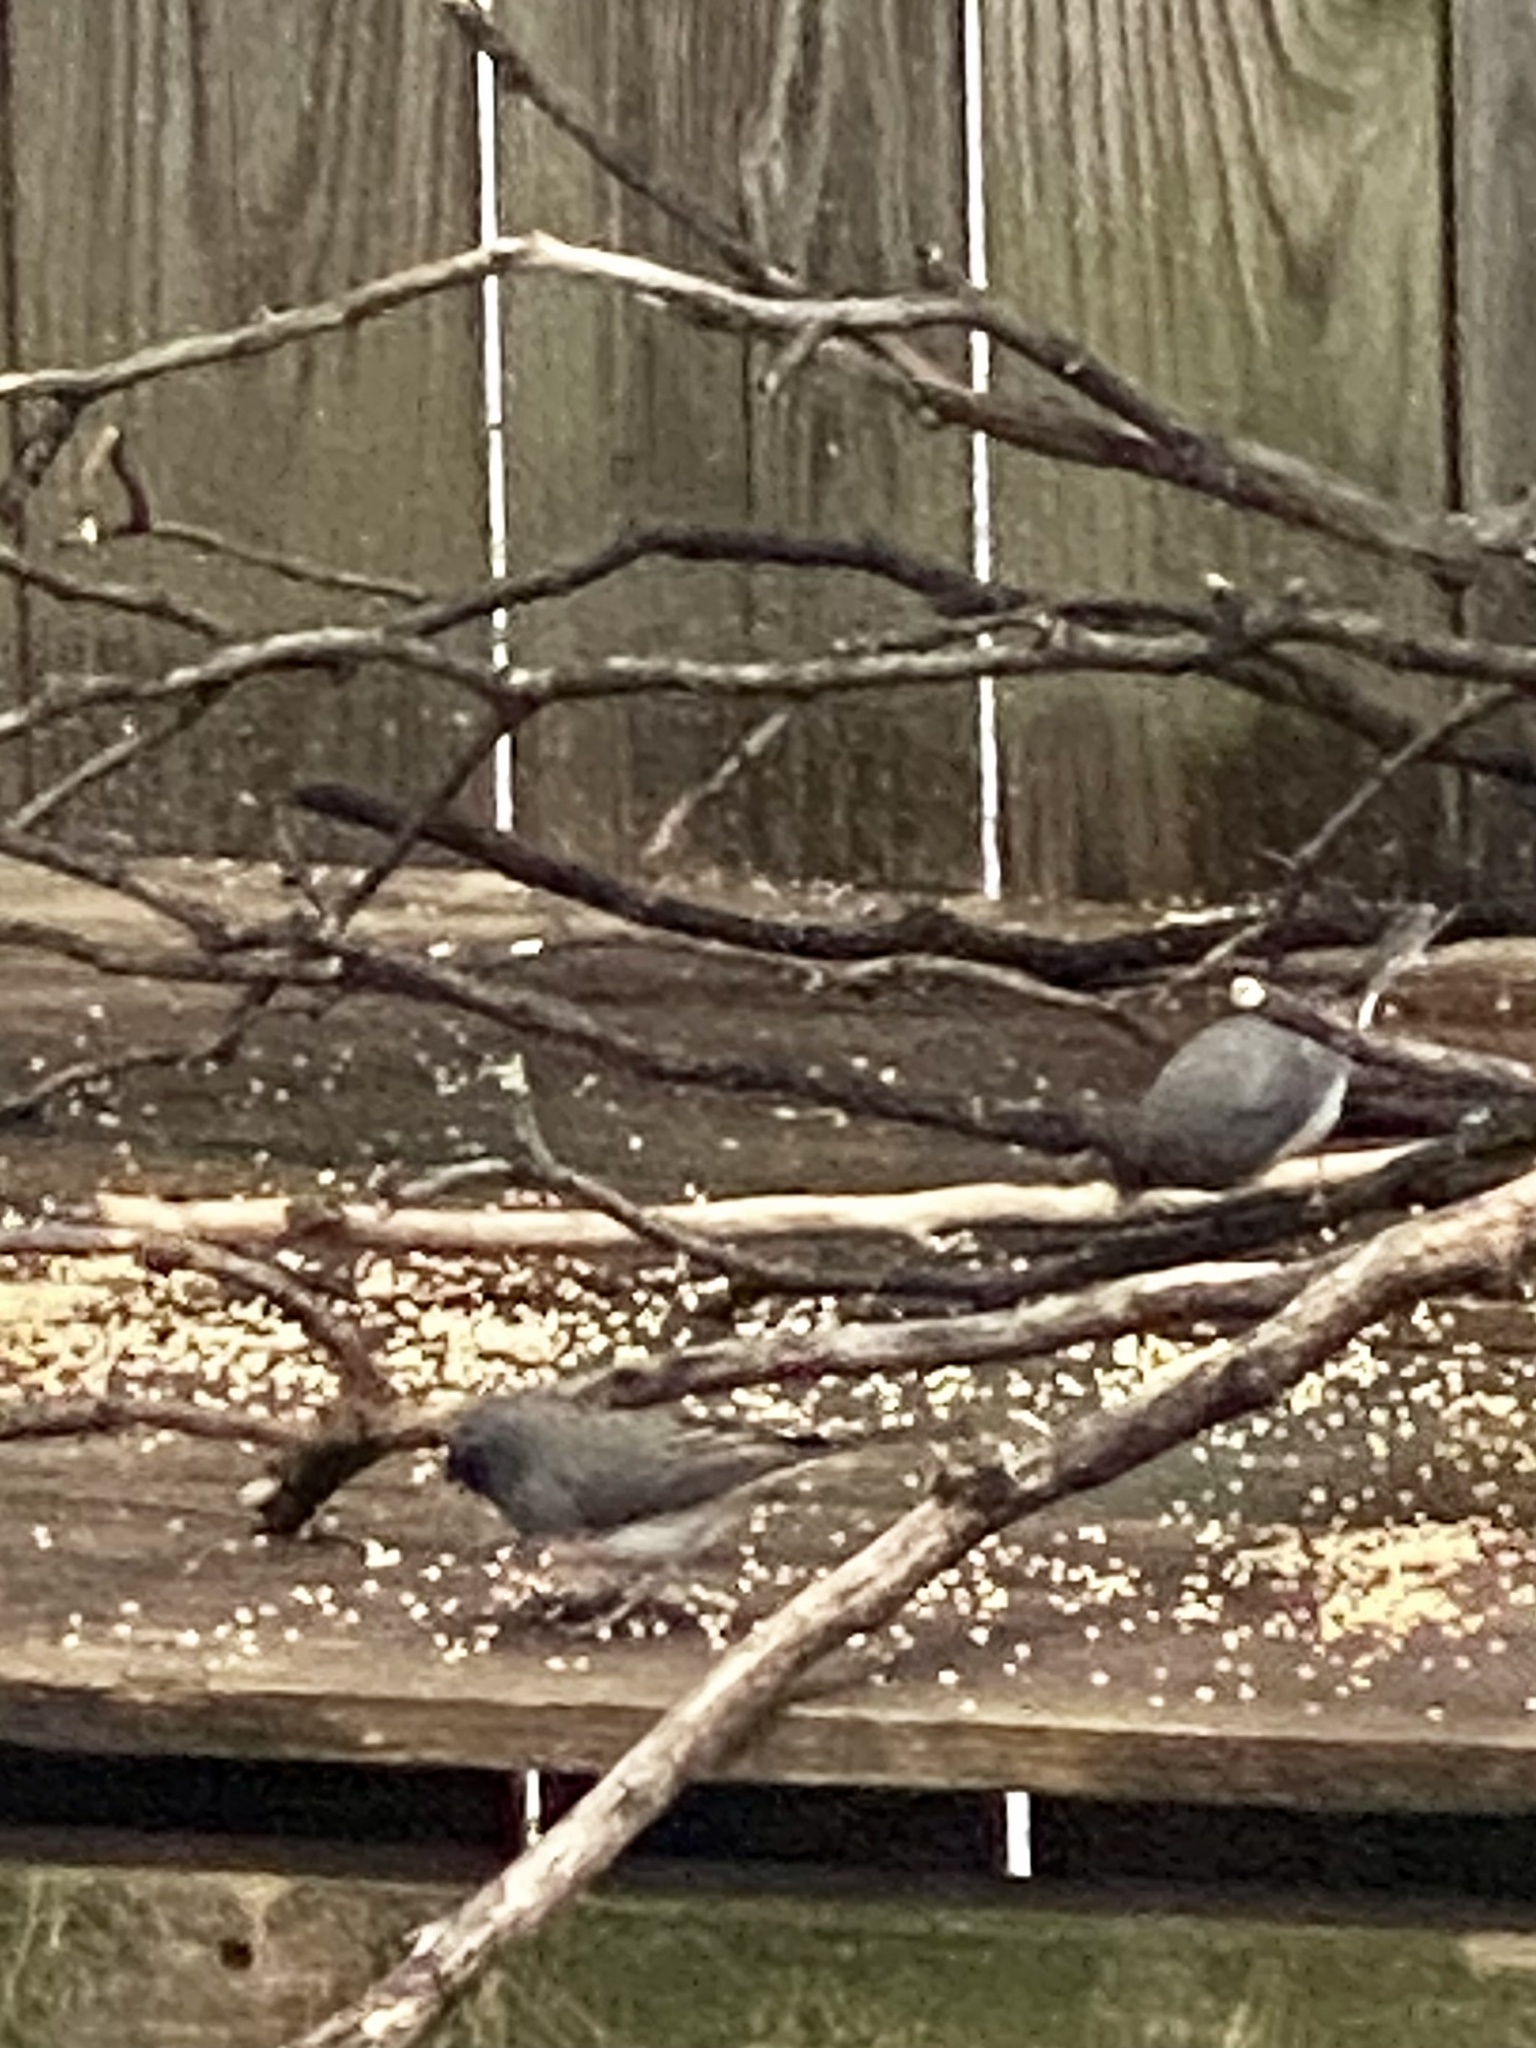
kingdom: Animalia
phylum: Chordata
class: Aves
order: Passeriformes
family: Passerellidae
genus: Junco
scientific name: Junco hyemalis
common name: Dark-eyed junco
